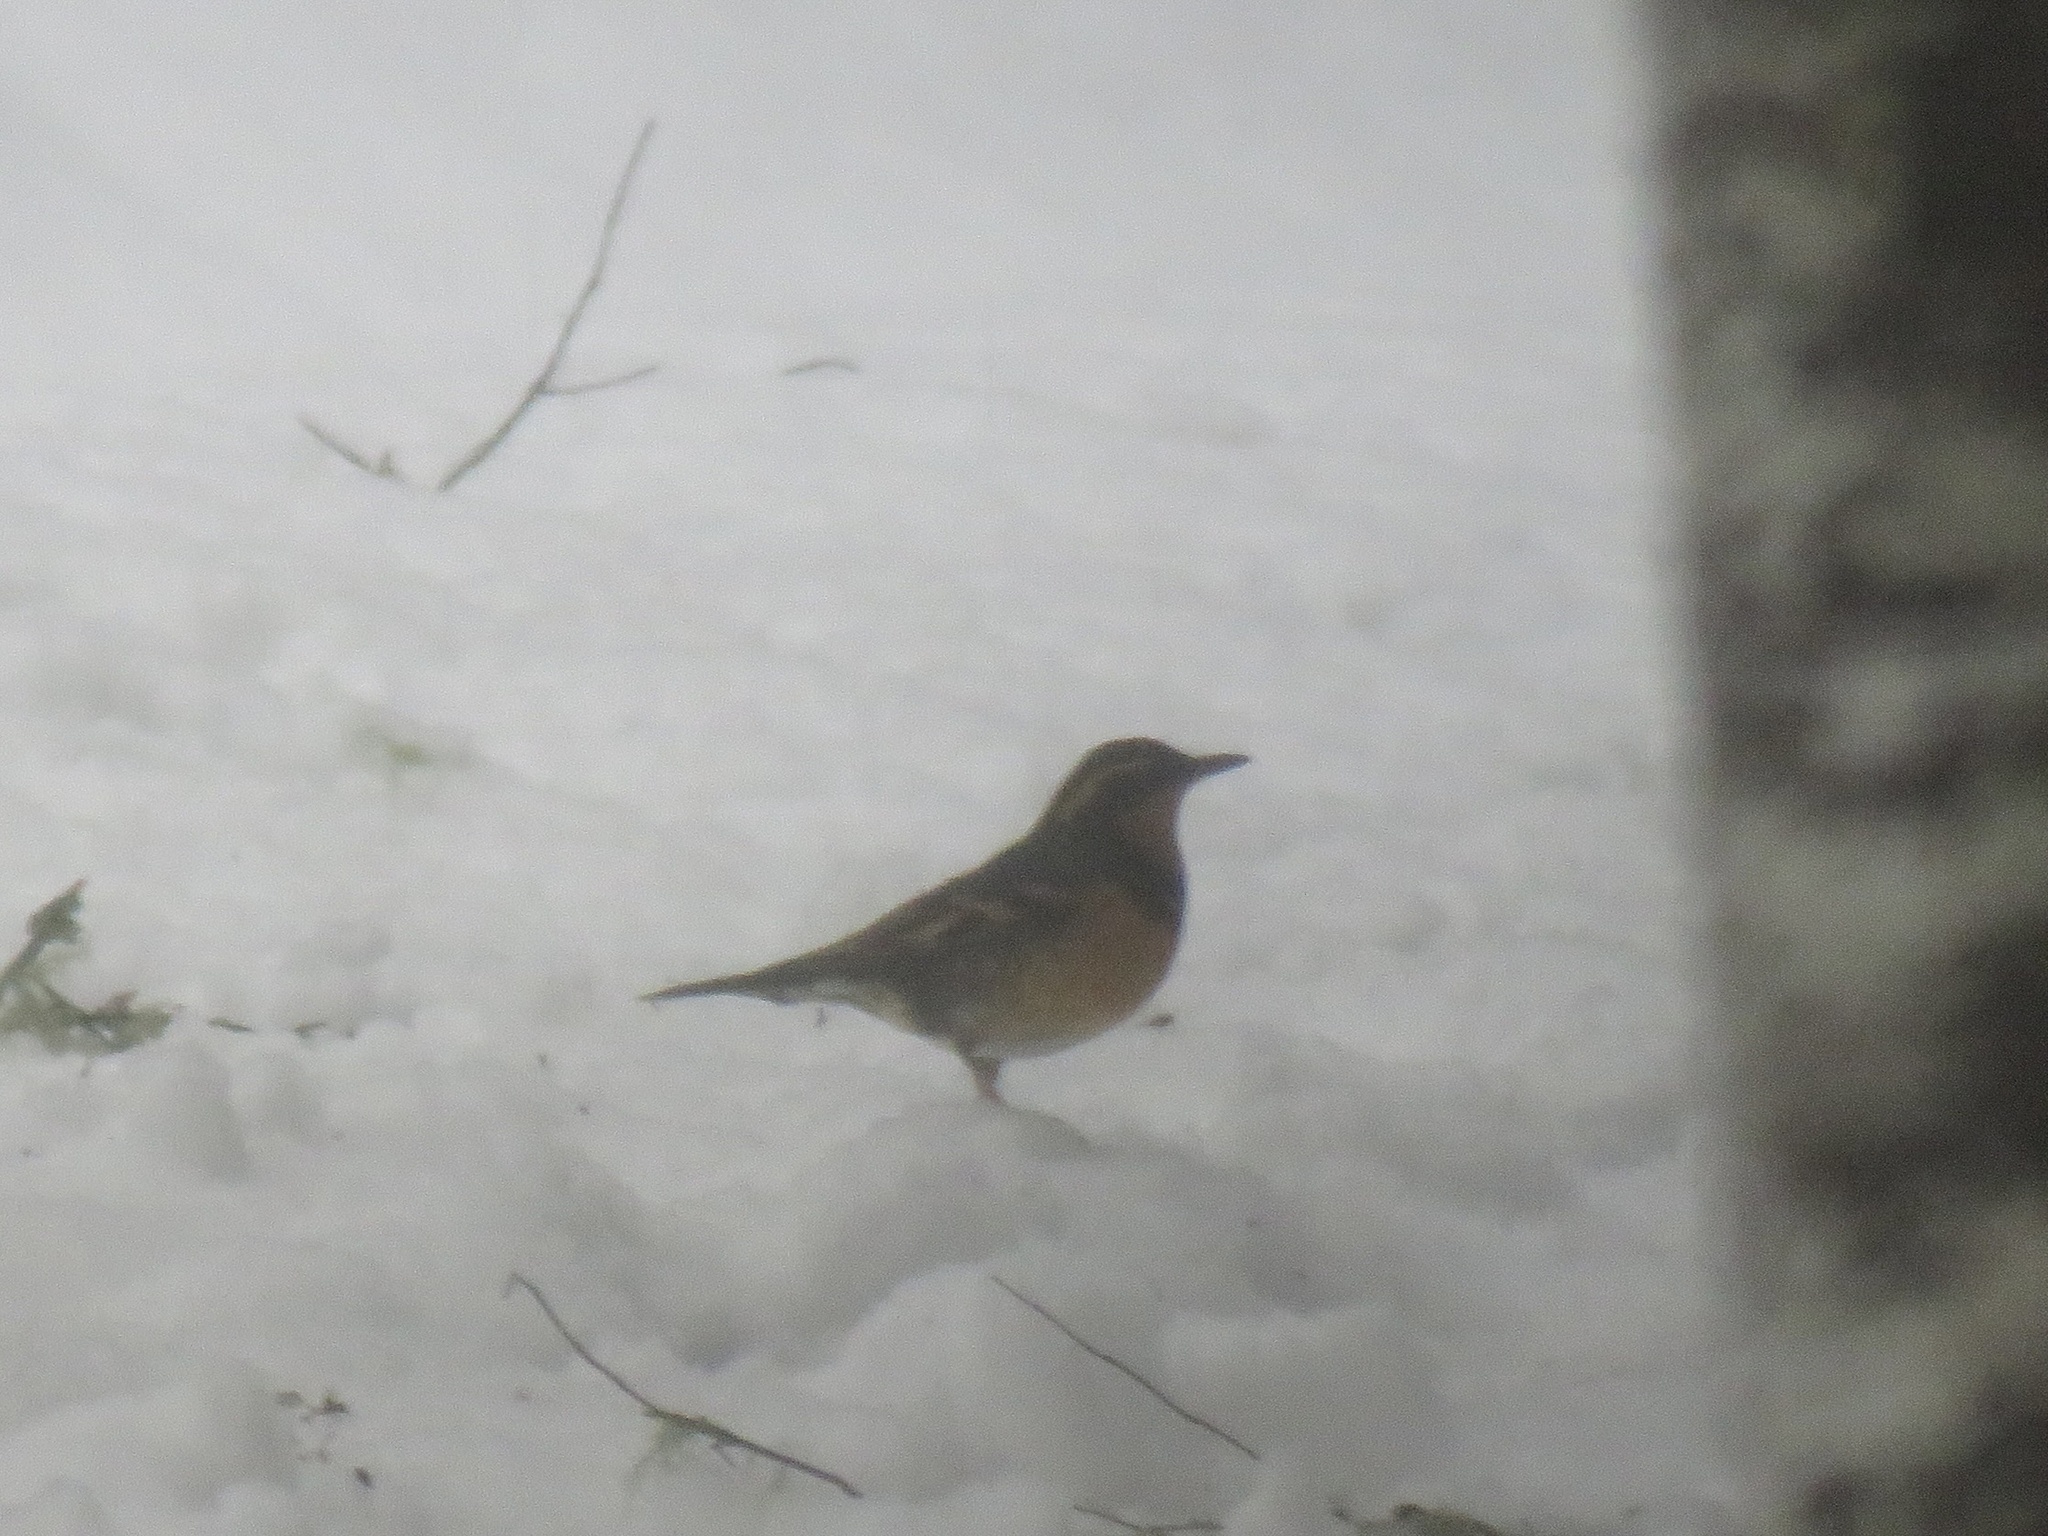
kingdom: Animalia
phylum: Chordata
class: Aves
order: Passeriformes
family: Turdidae
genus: Ixoreus
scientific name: Ixoreus naevius
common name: Varied thrush
